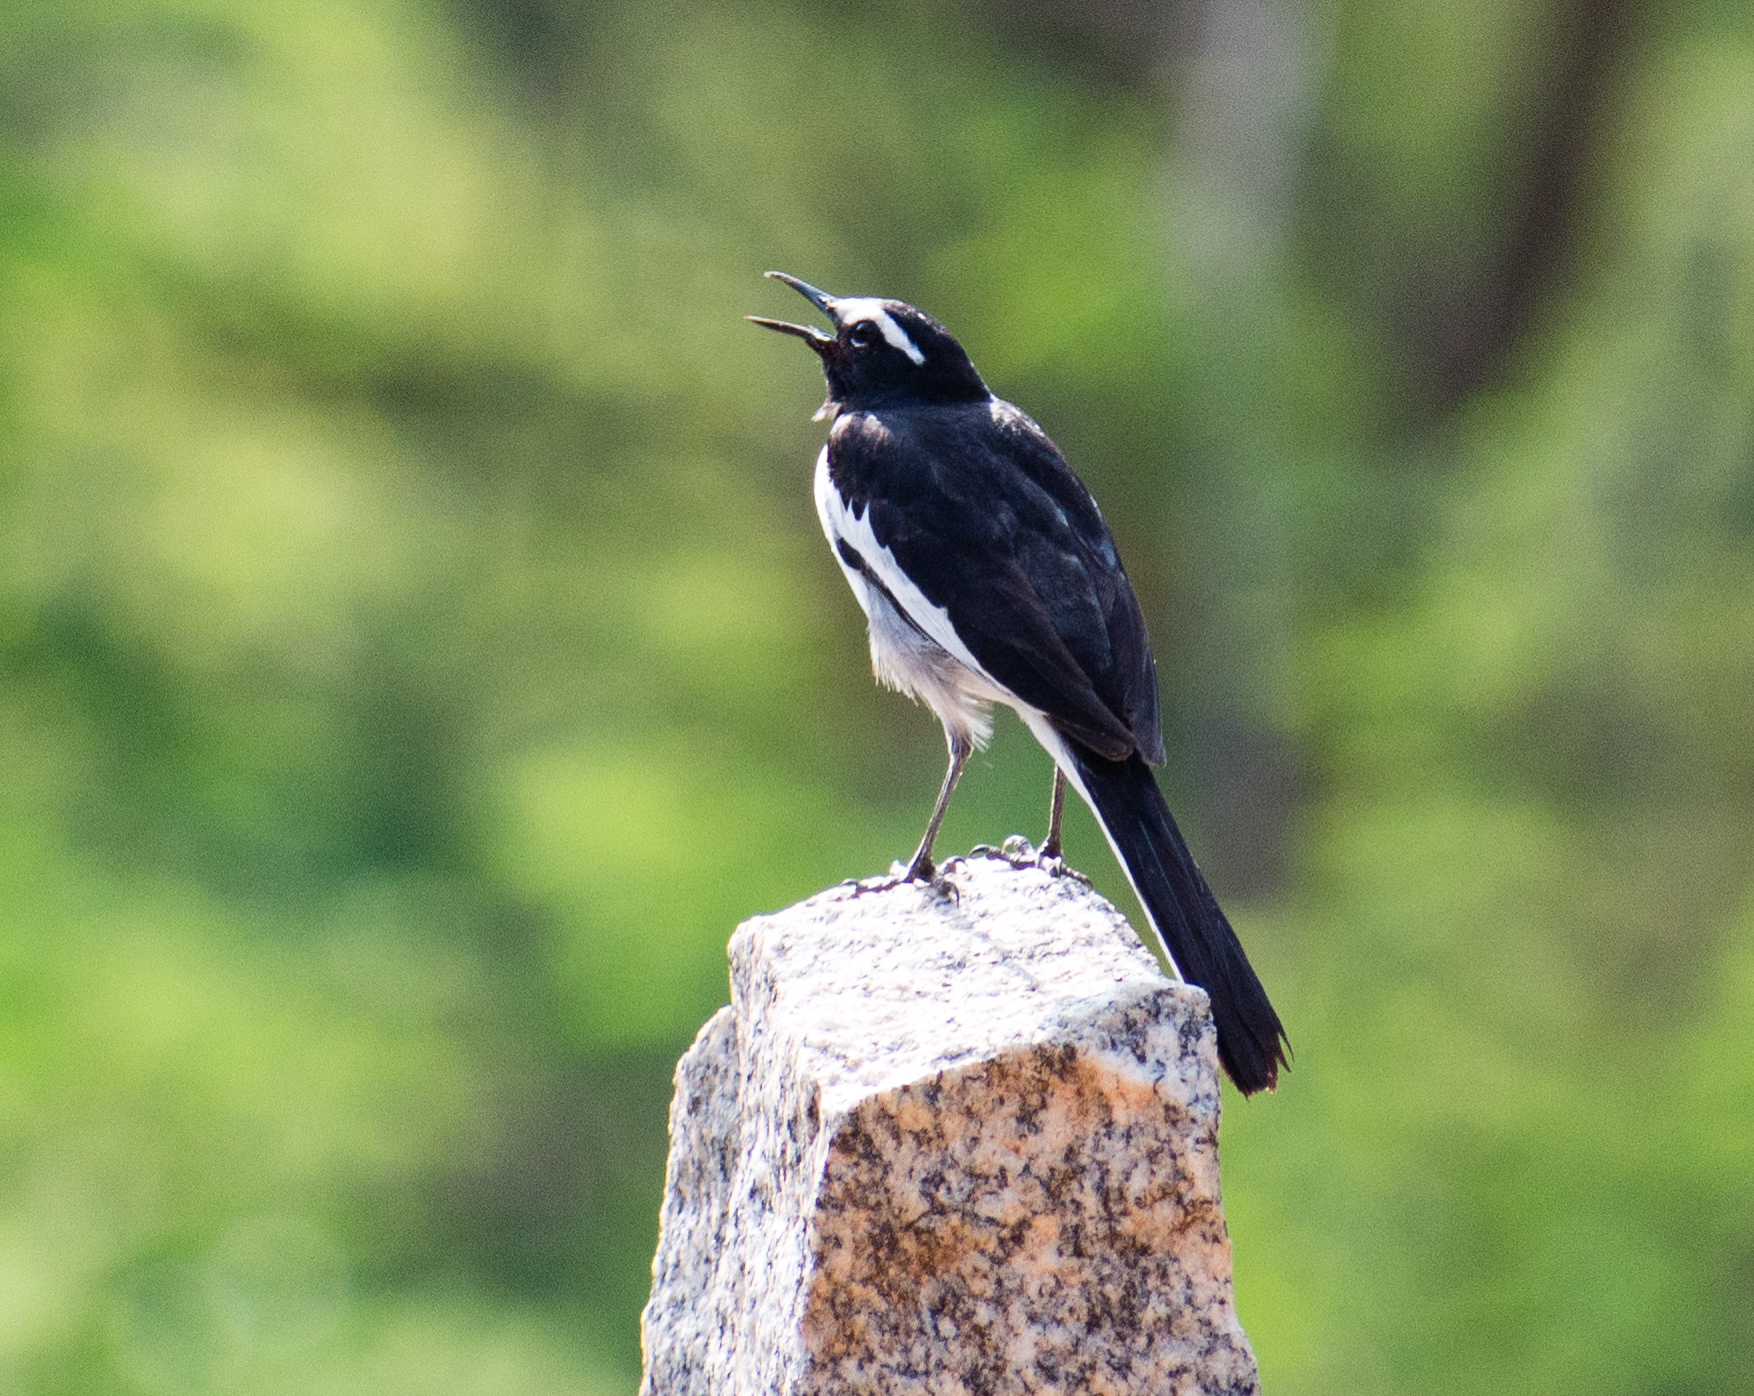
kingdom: Animalia
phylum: Chordata
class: Aves
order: Passeriformes
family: Motacillidae
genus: Motacilla
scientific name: Motacilla maderaspatensis
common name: White-browed wagtail
